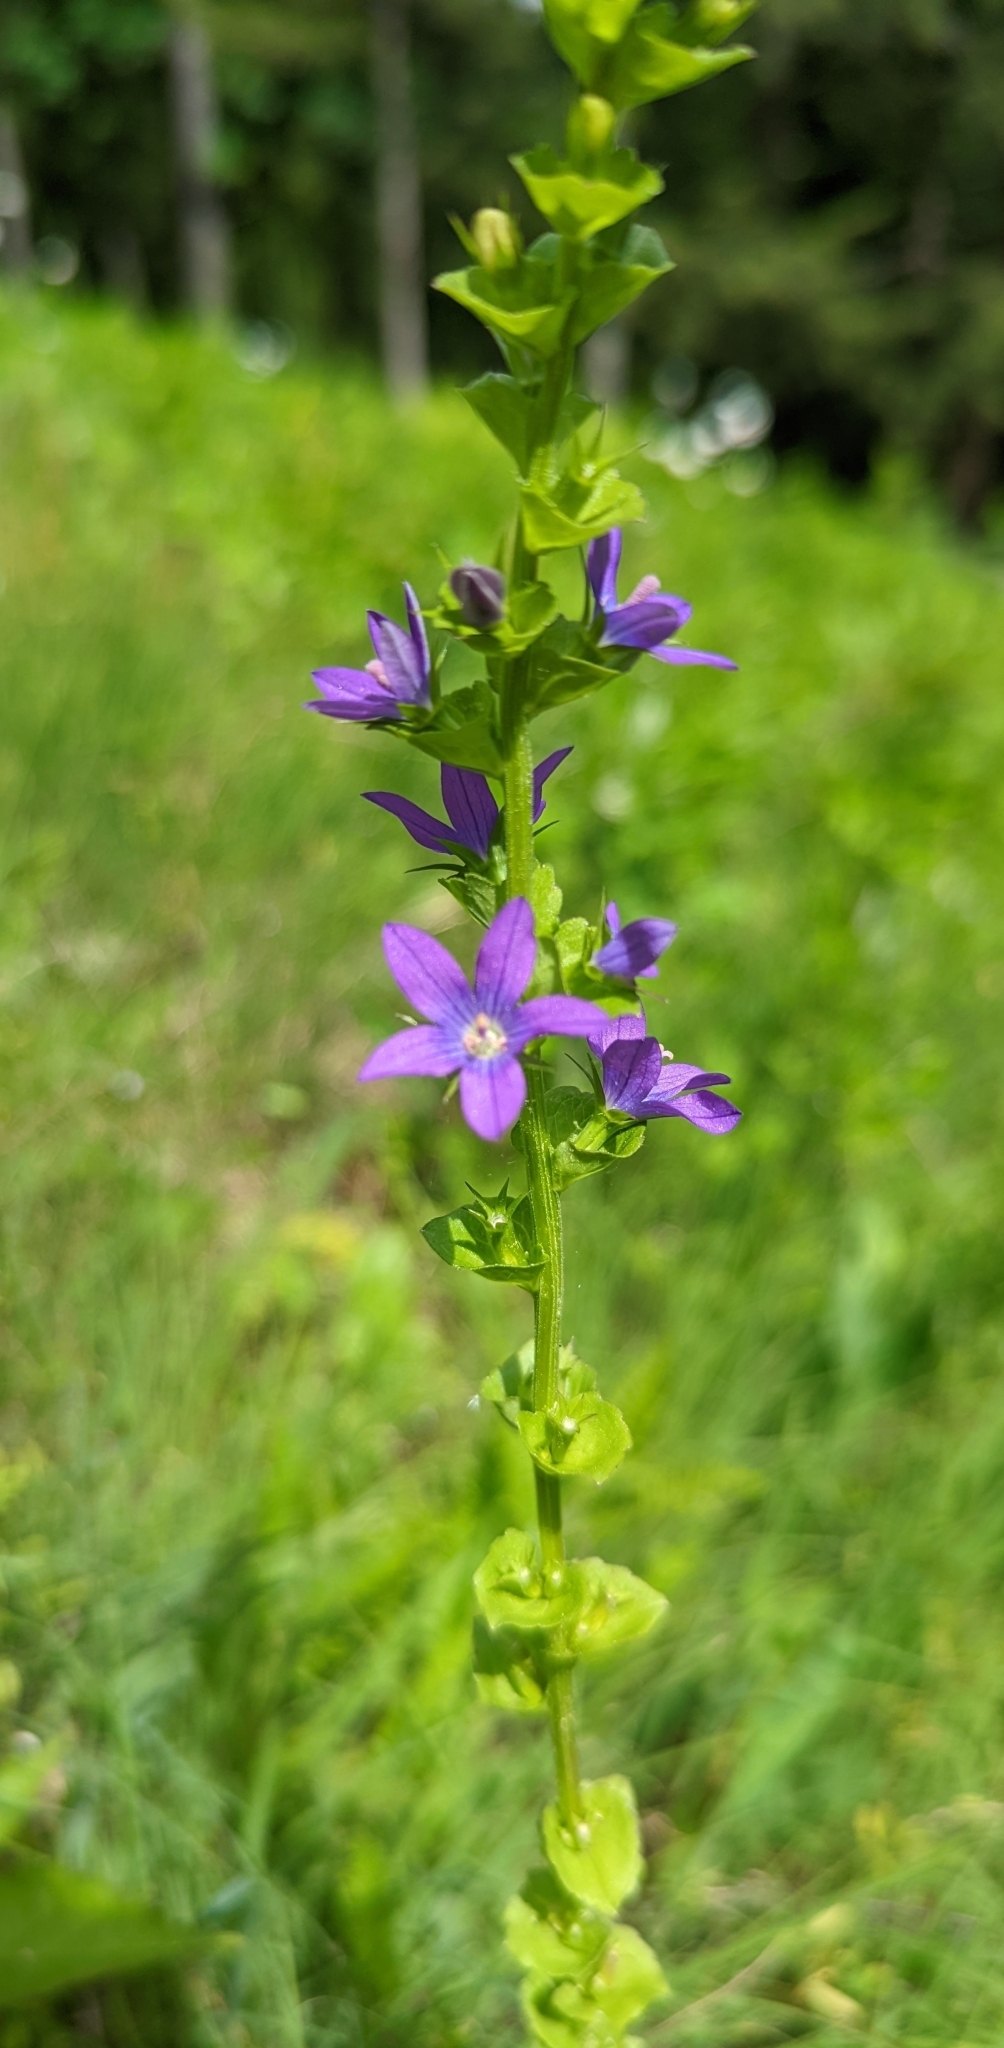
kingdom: Plantae
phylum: Tracheophyta
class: Magnoliopsida
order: Asterales
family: Campanulaceae
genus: Triodanis
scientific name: Triodanis perfoliata
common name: Clasping venus' looking-glass
